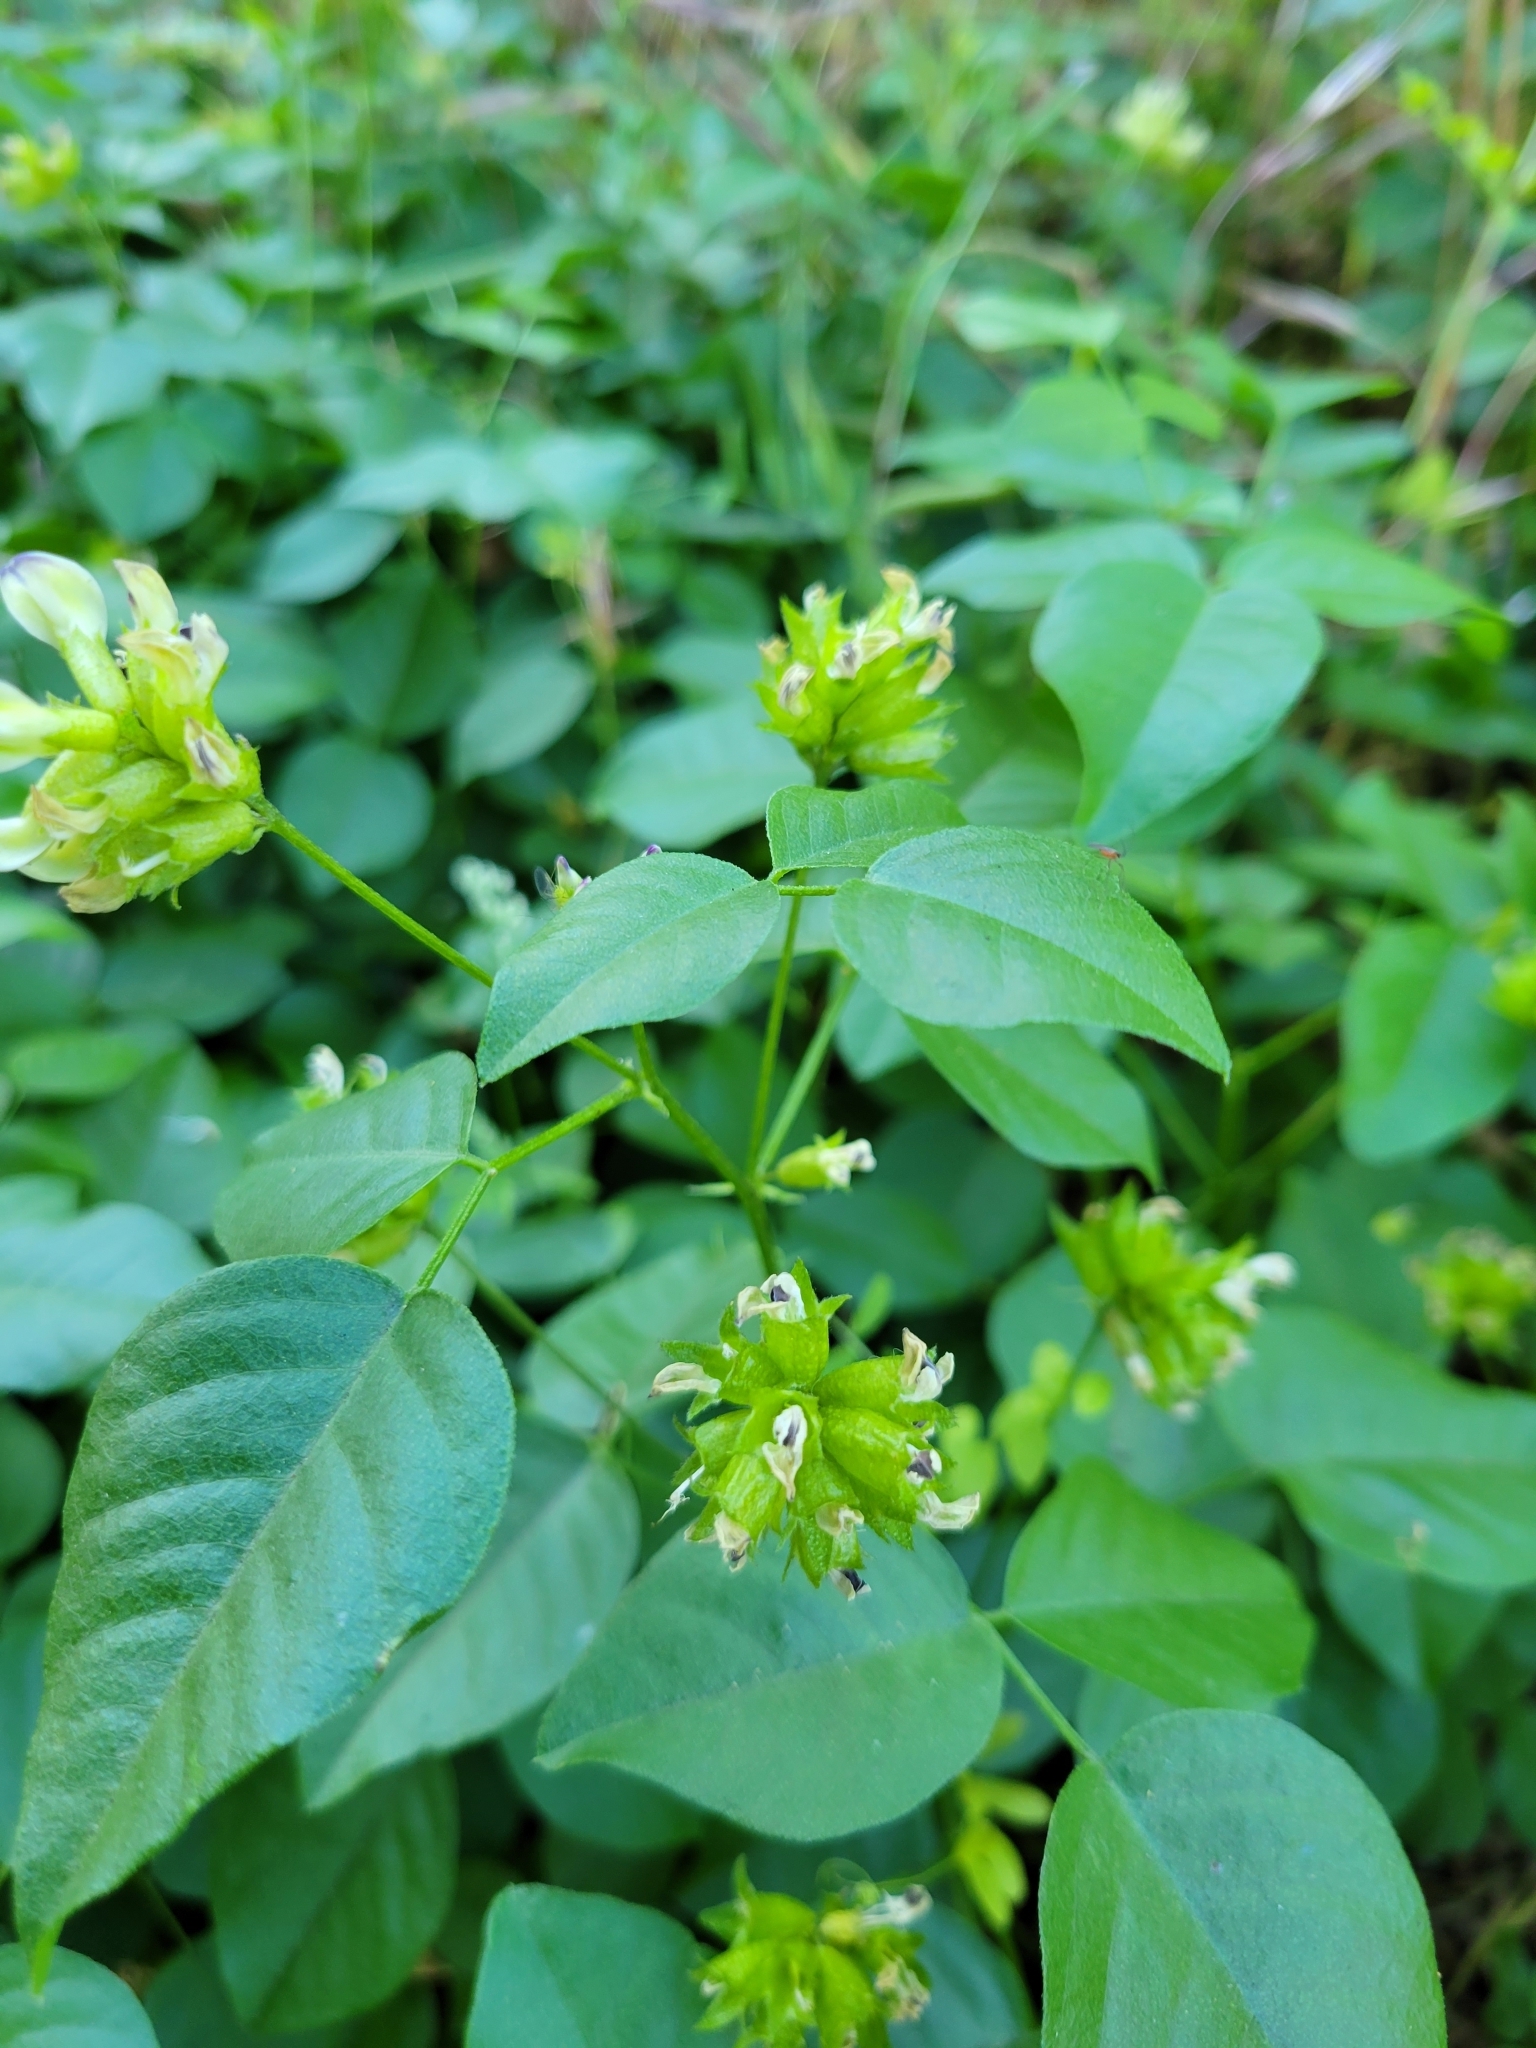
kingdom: Plantae
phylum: Tracheophyta
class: Magnoliopsida
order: Fabales
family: Fabaceae
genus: Rupertia
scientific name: Rupertia physodes
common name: California-tea
